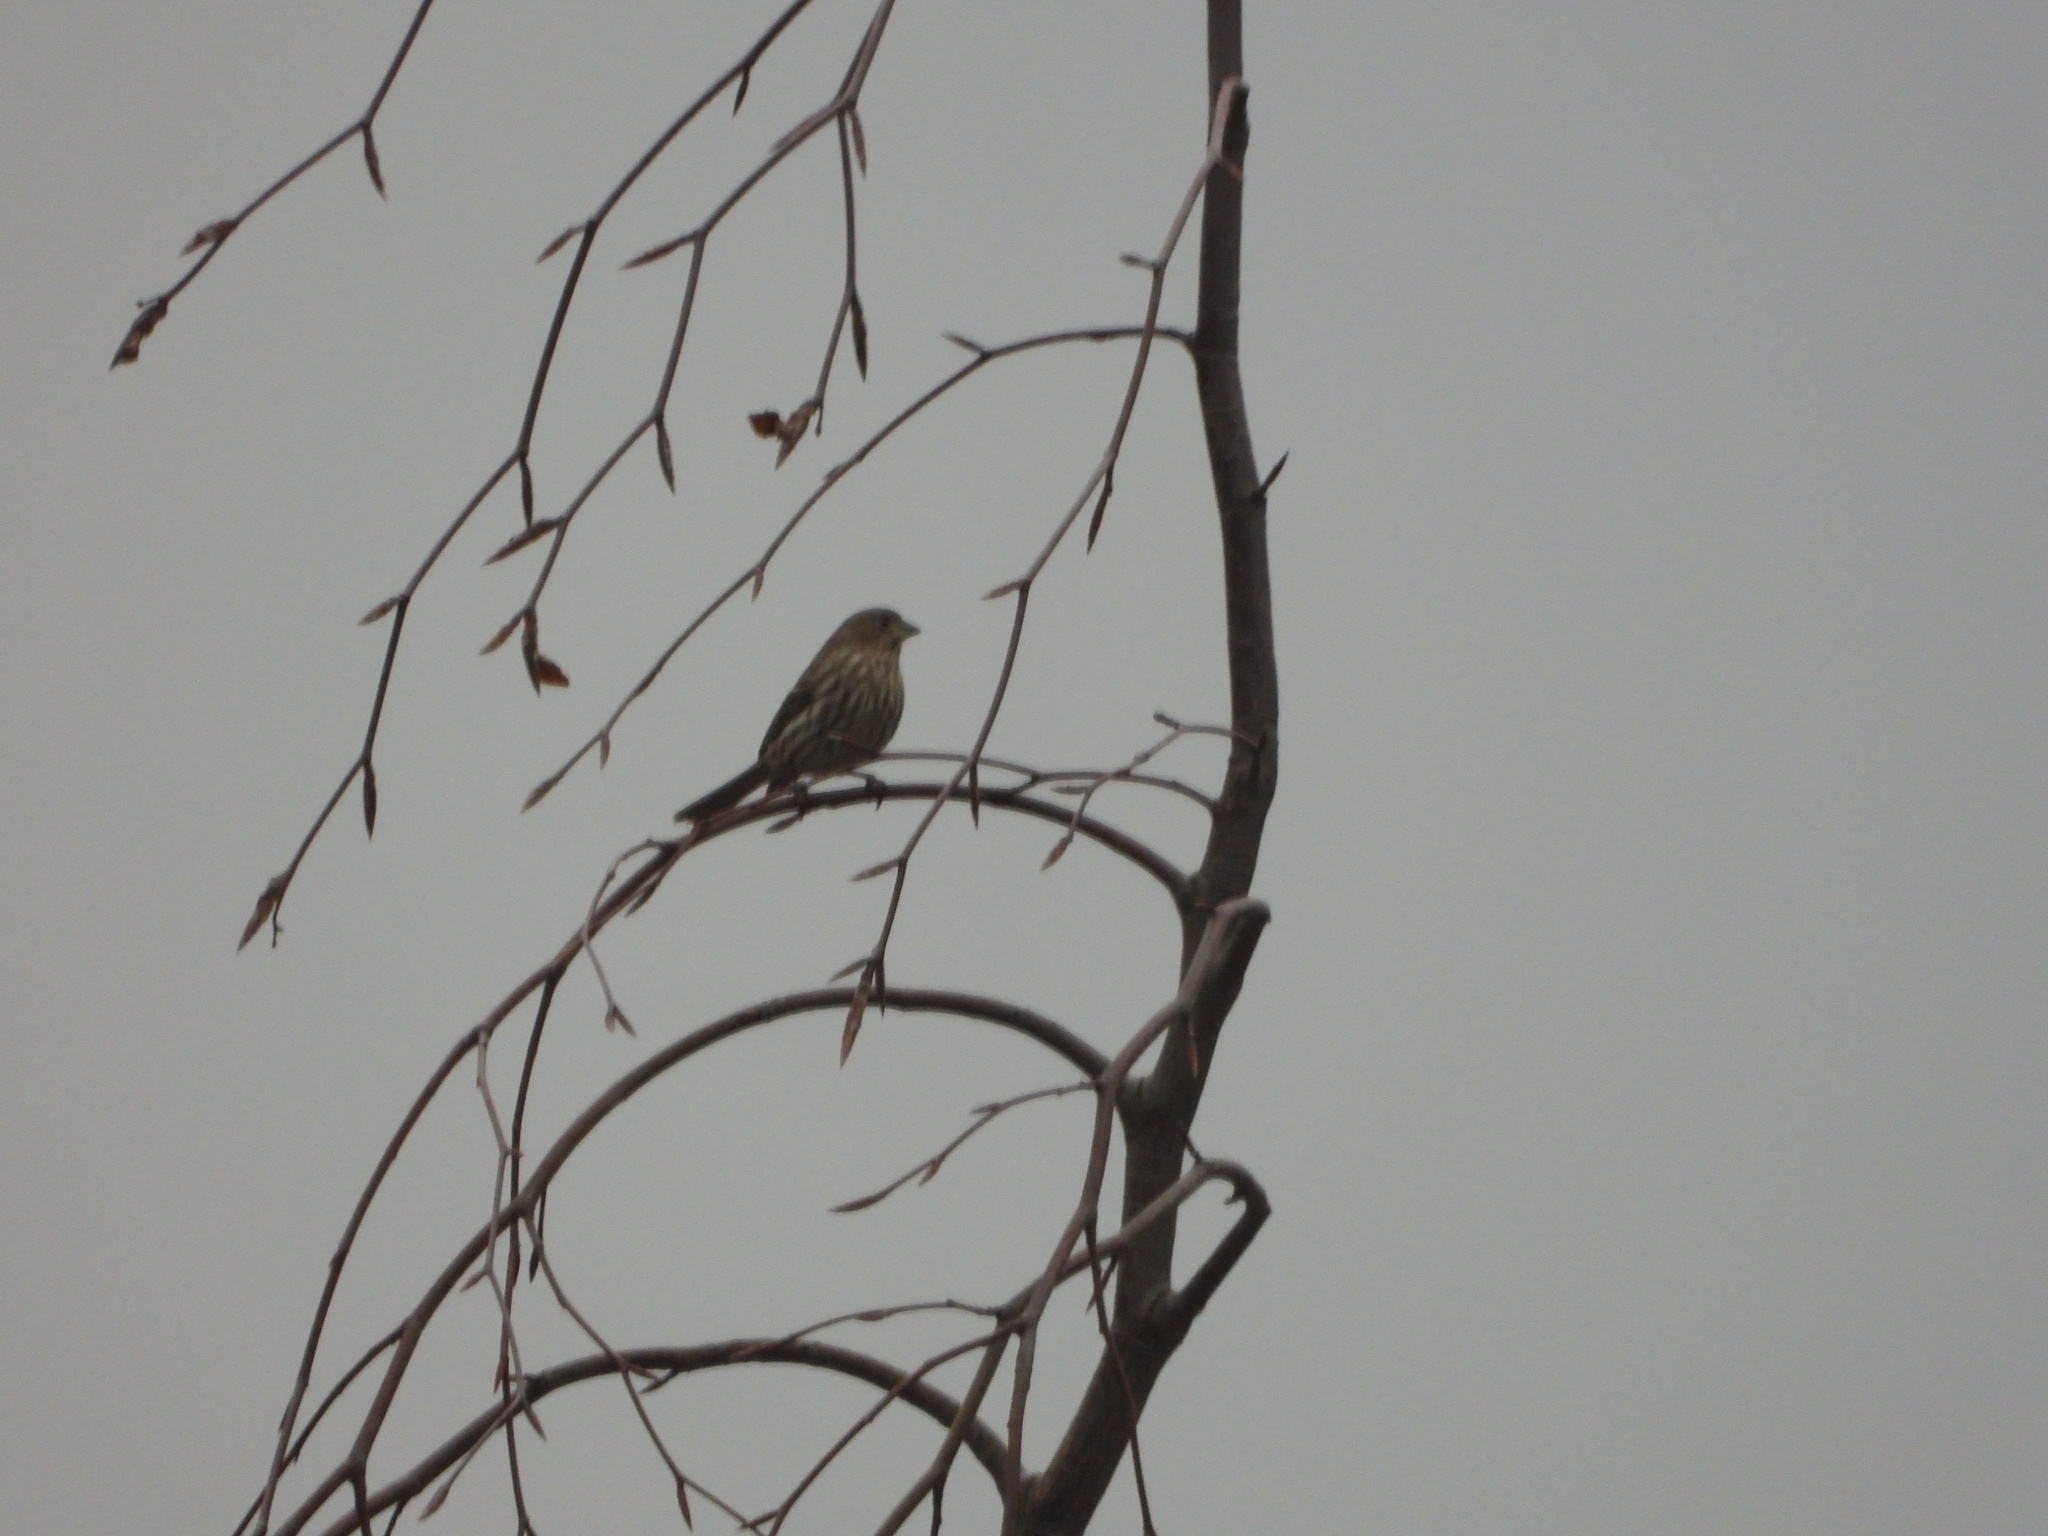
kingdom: Animalia
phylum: Chordata
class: Aves
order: Passeriformes
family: Fringillidae
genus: Haemorhous
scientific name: Haemorhous mexicanus
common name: House finch
